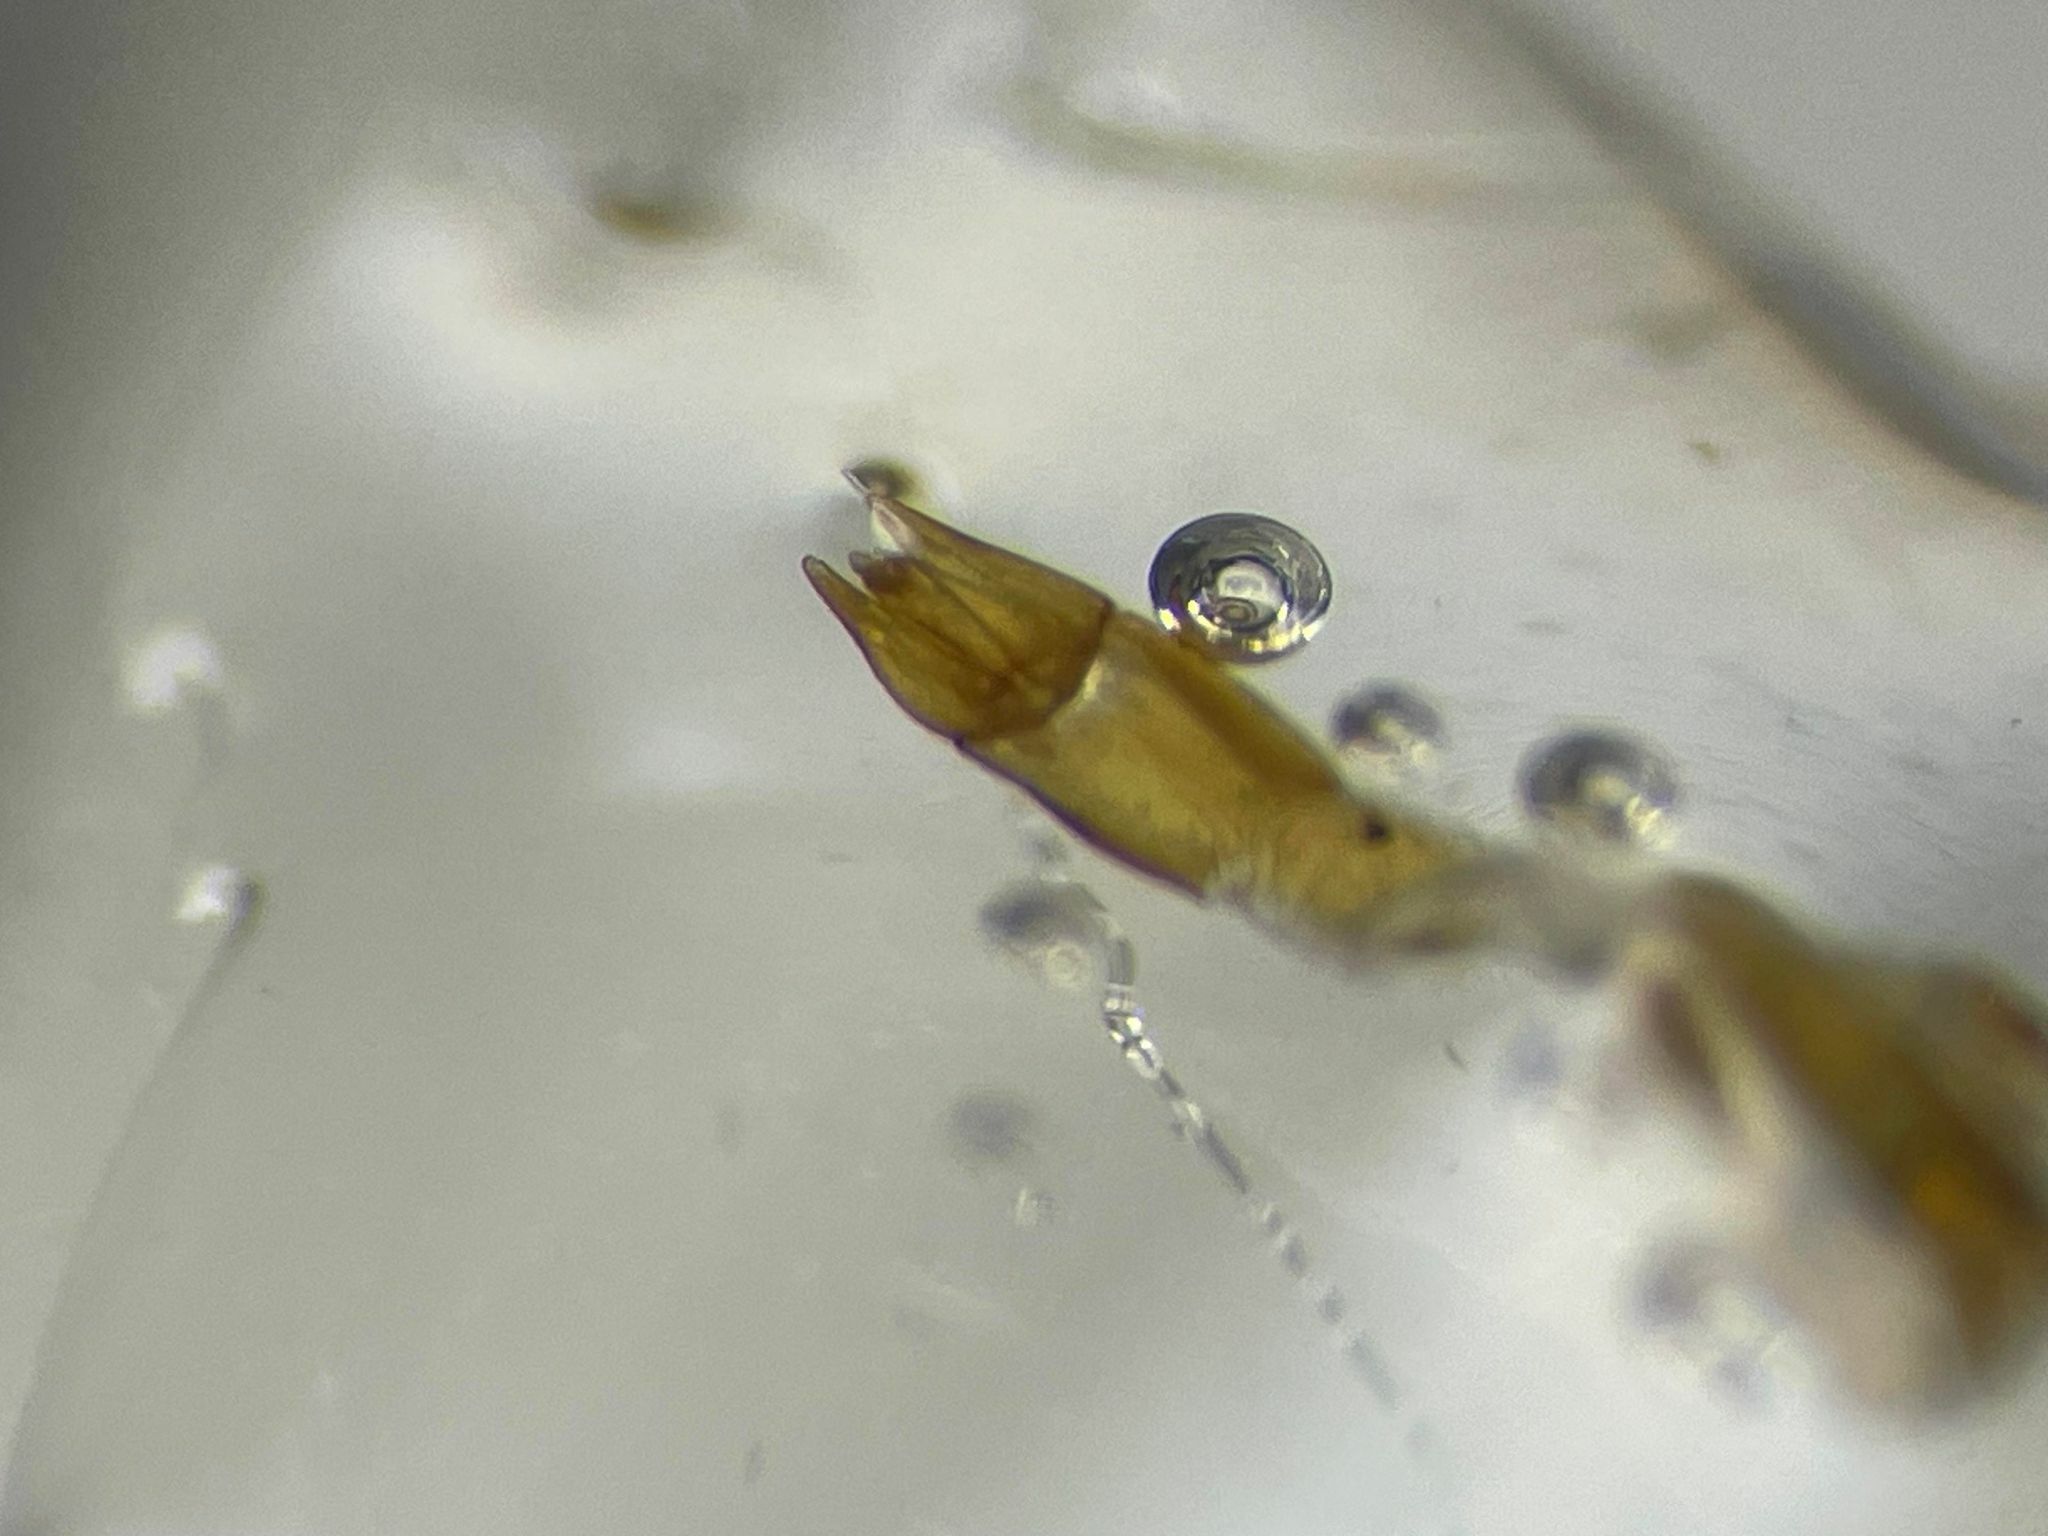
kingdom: Animalia
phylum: Arthropoda
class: Insecta
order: Coleoptera
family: Hydrophilidae
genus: Cymbiodyta
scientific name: Cymbiodyta bifida
